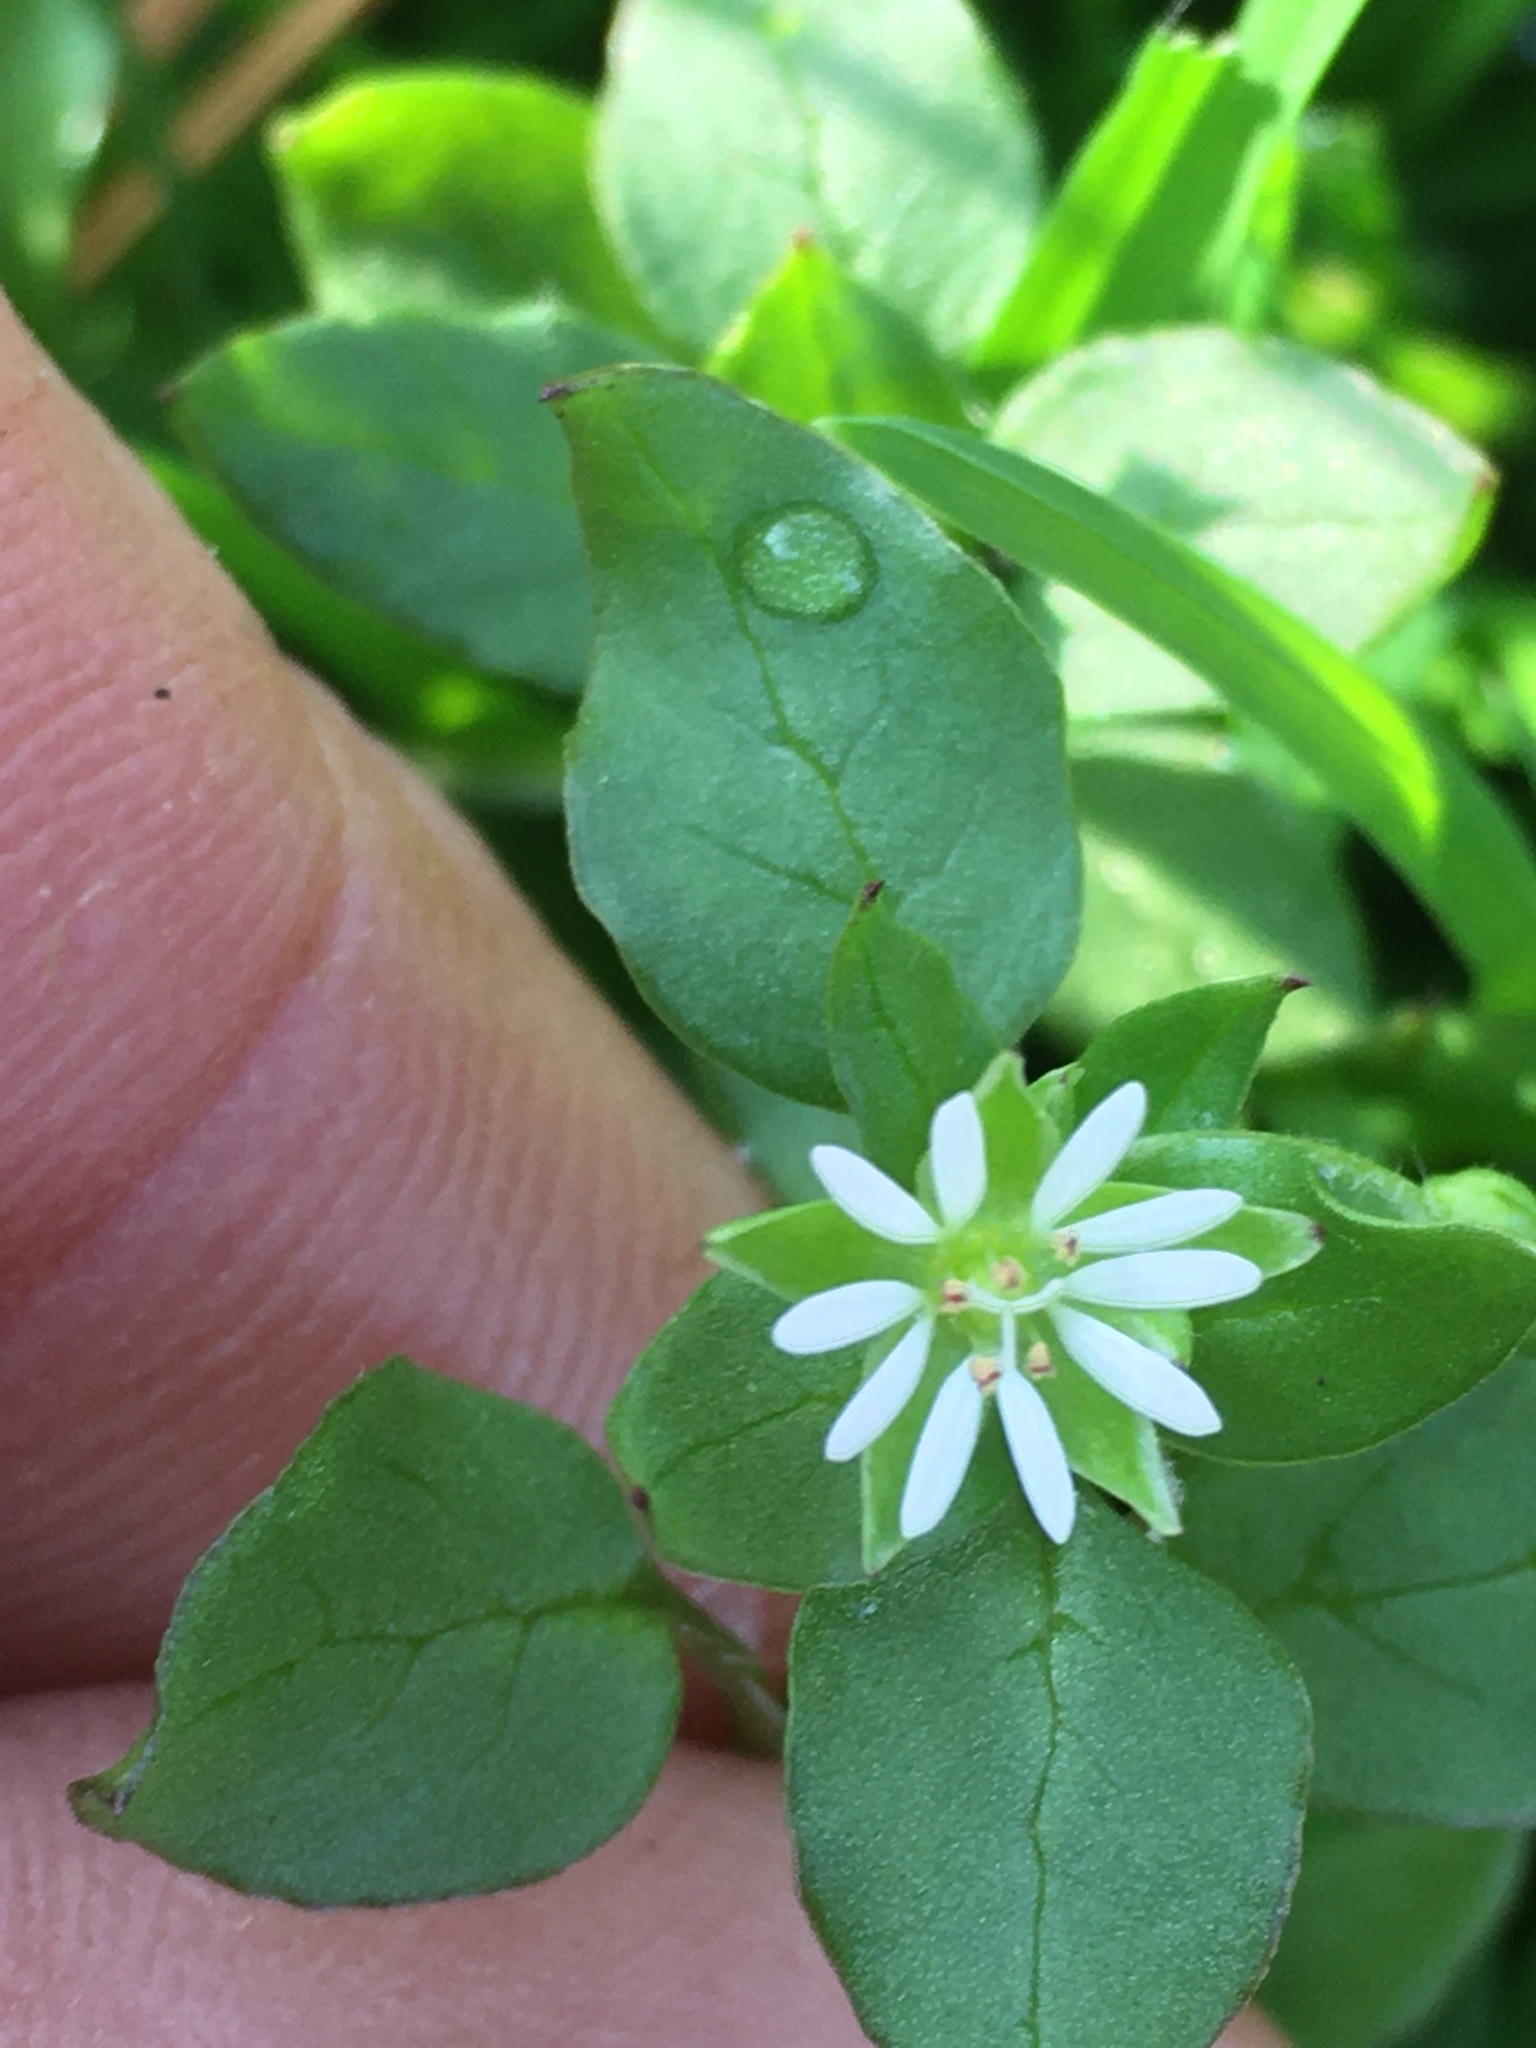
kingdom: Plantae
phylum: Tracheophyta
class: Magnoliopsida
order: Caryophyllales
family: Caryophyllaceae
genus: Stellaria
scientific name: Stellaria media
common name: Common chickweed
